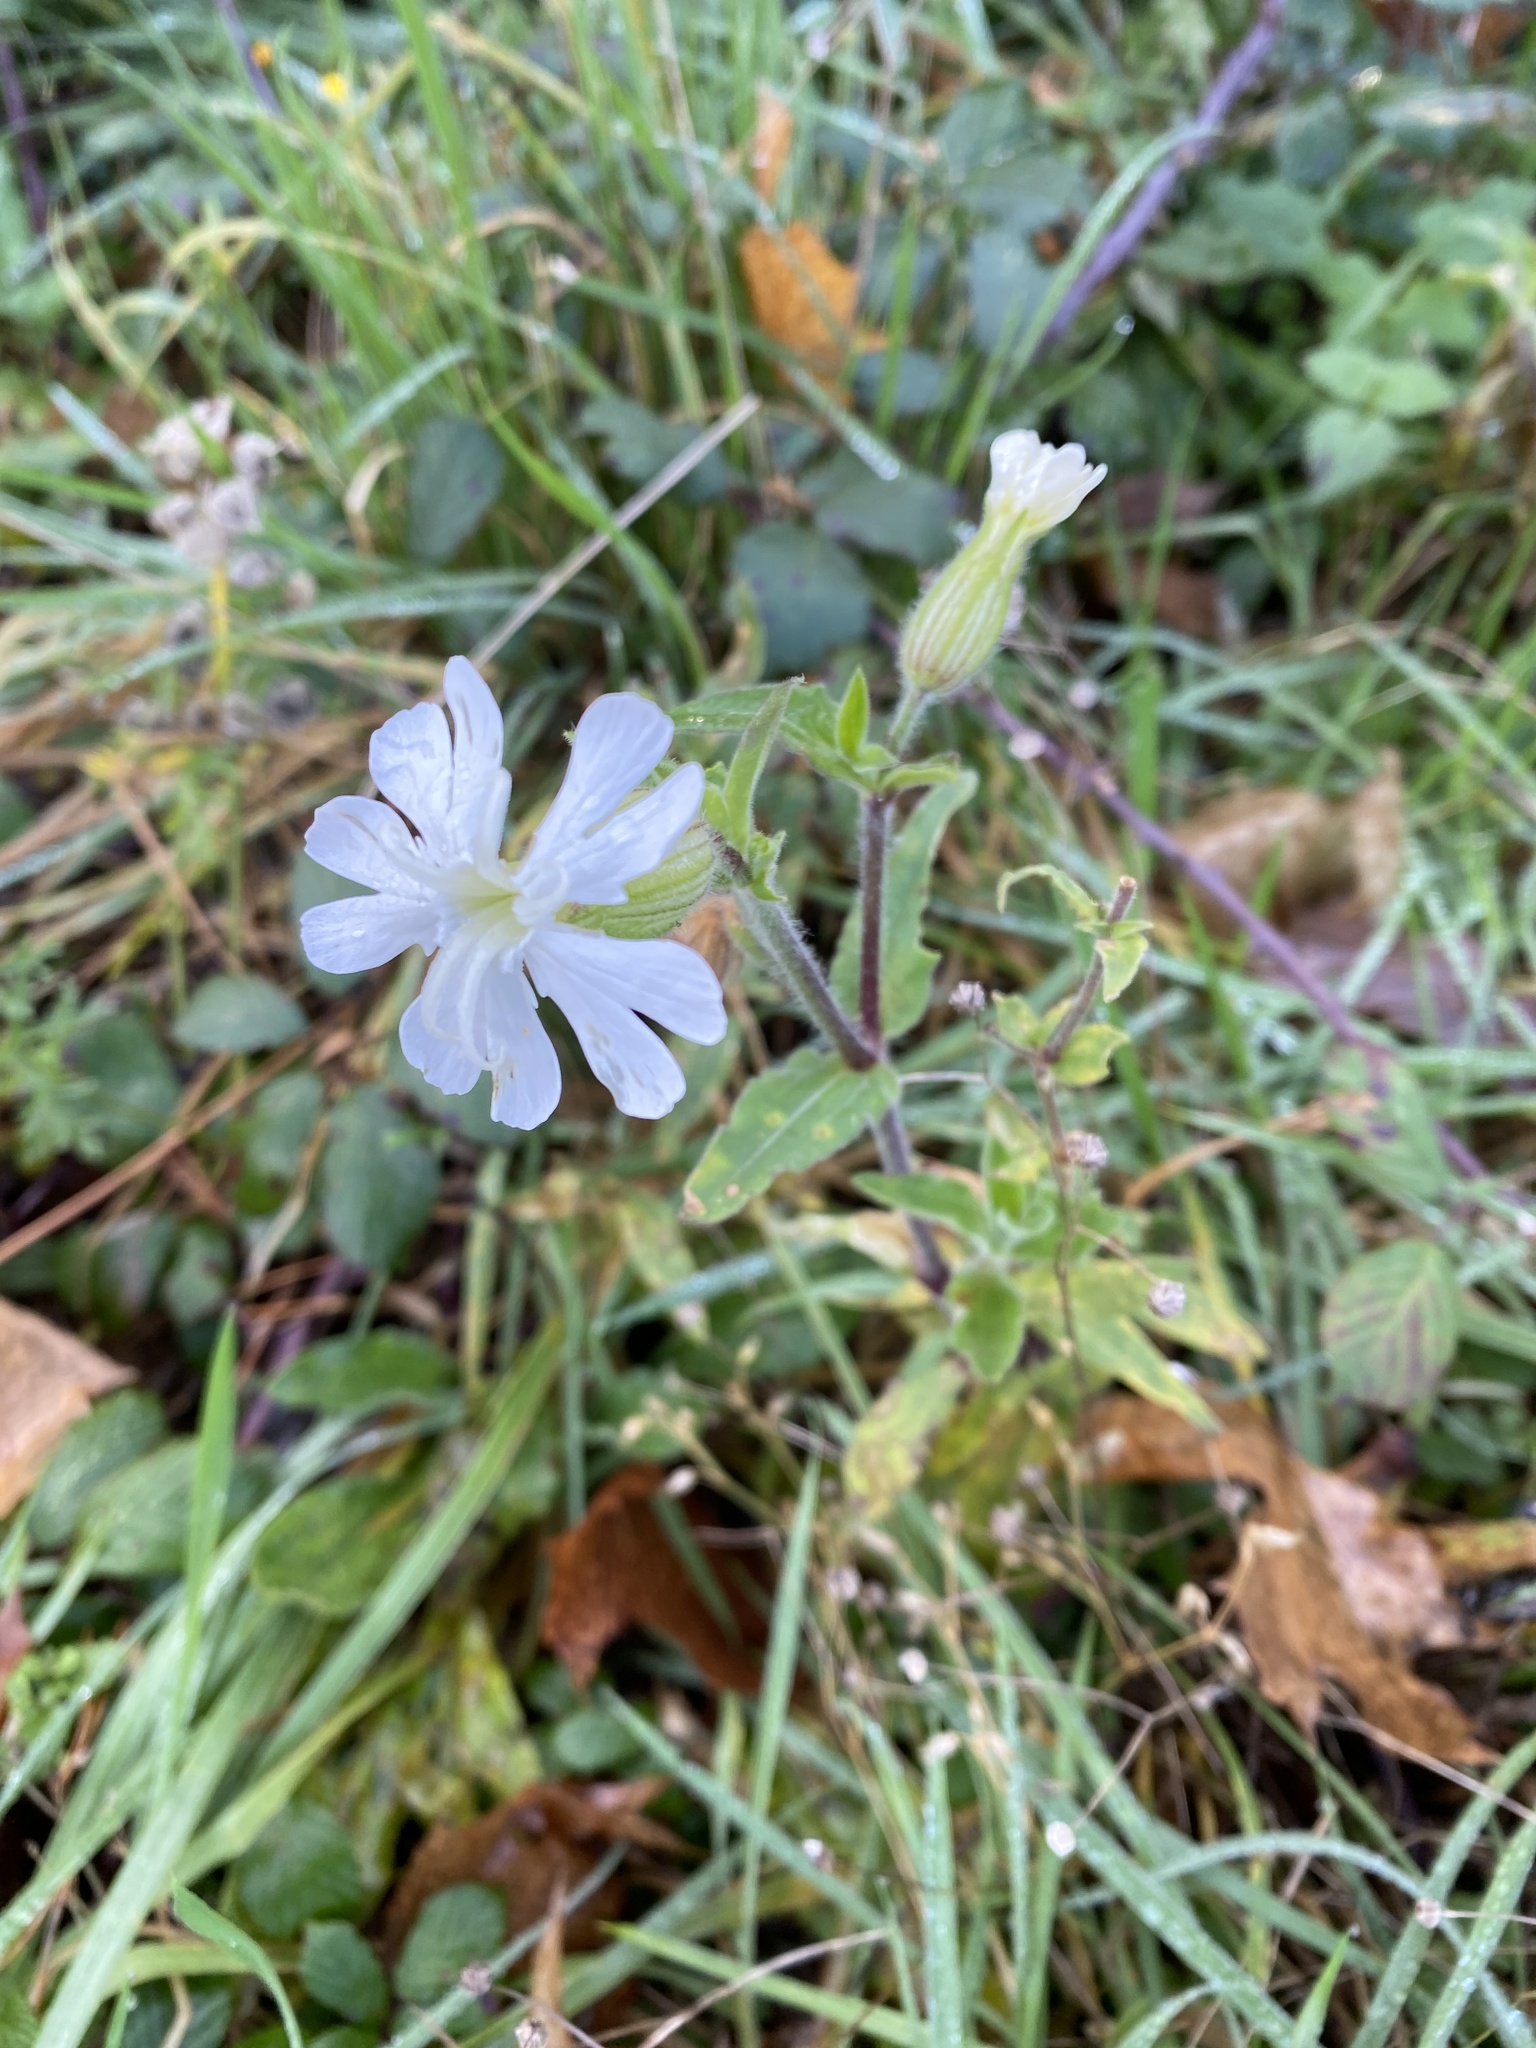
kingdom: Plantae
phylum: Tracheophyta
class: Magnoliopsida
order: Caryophyllales
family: Caryophyllaceae
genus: Silene
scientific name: Silene latifolia
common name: White campion
